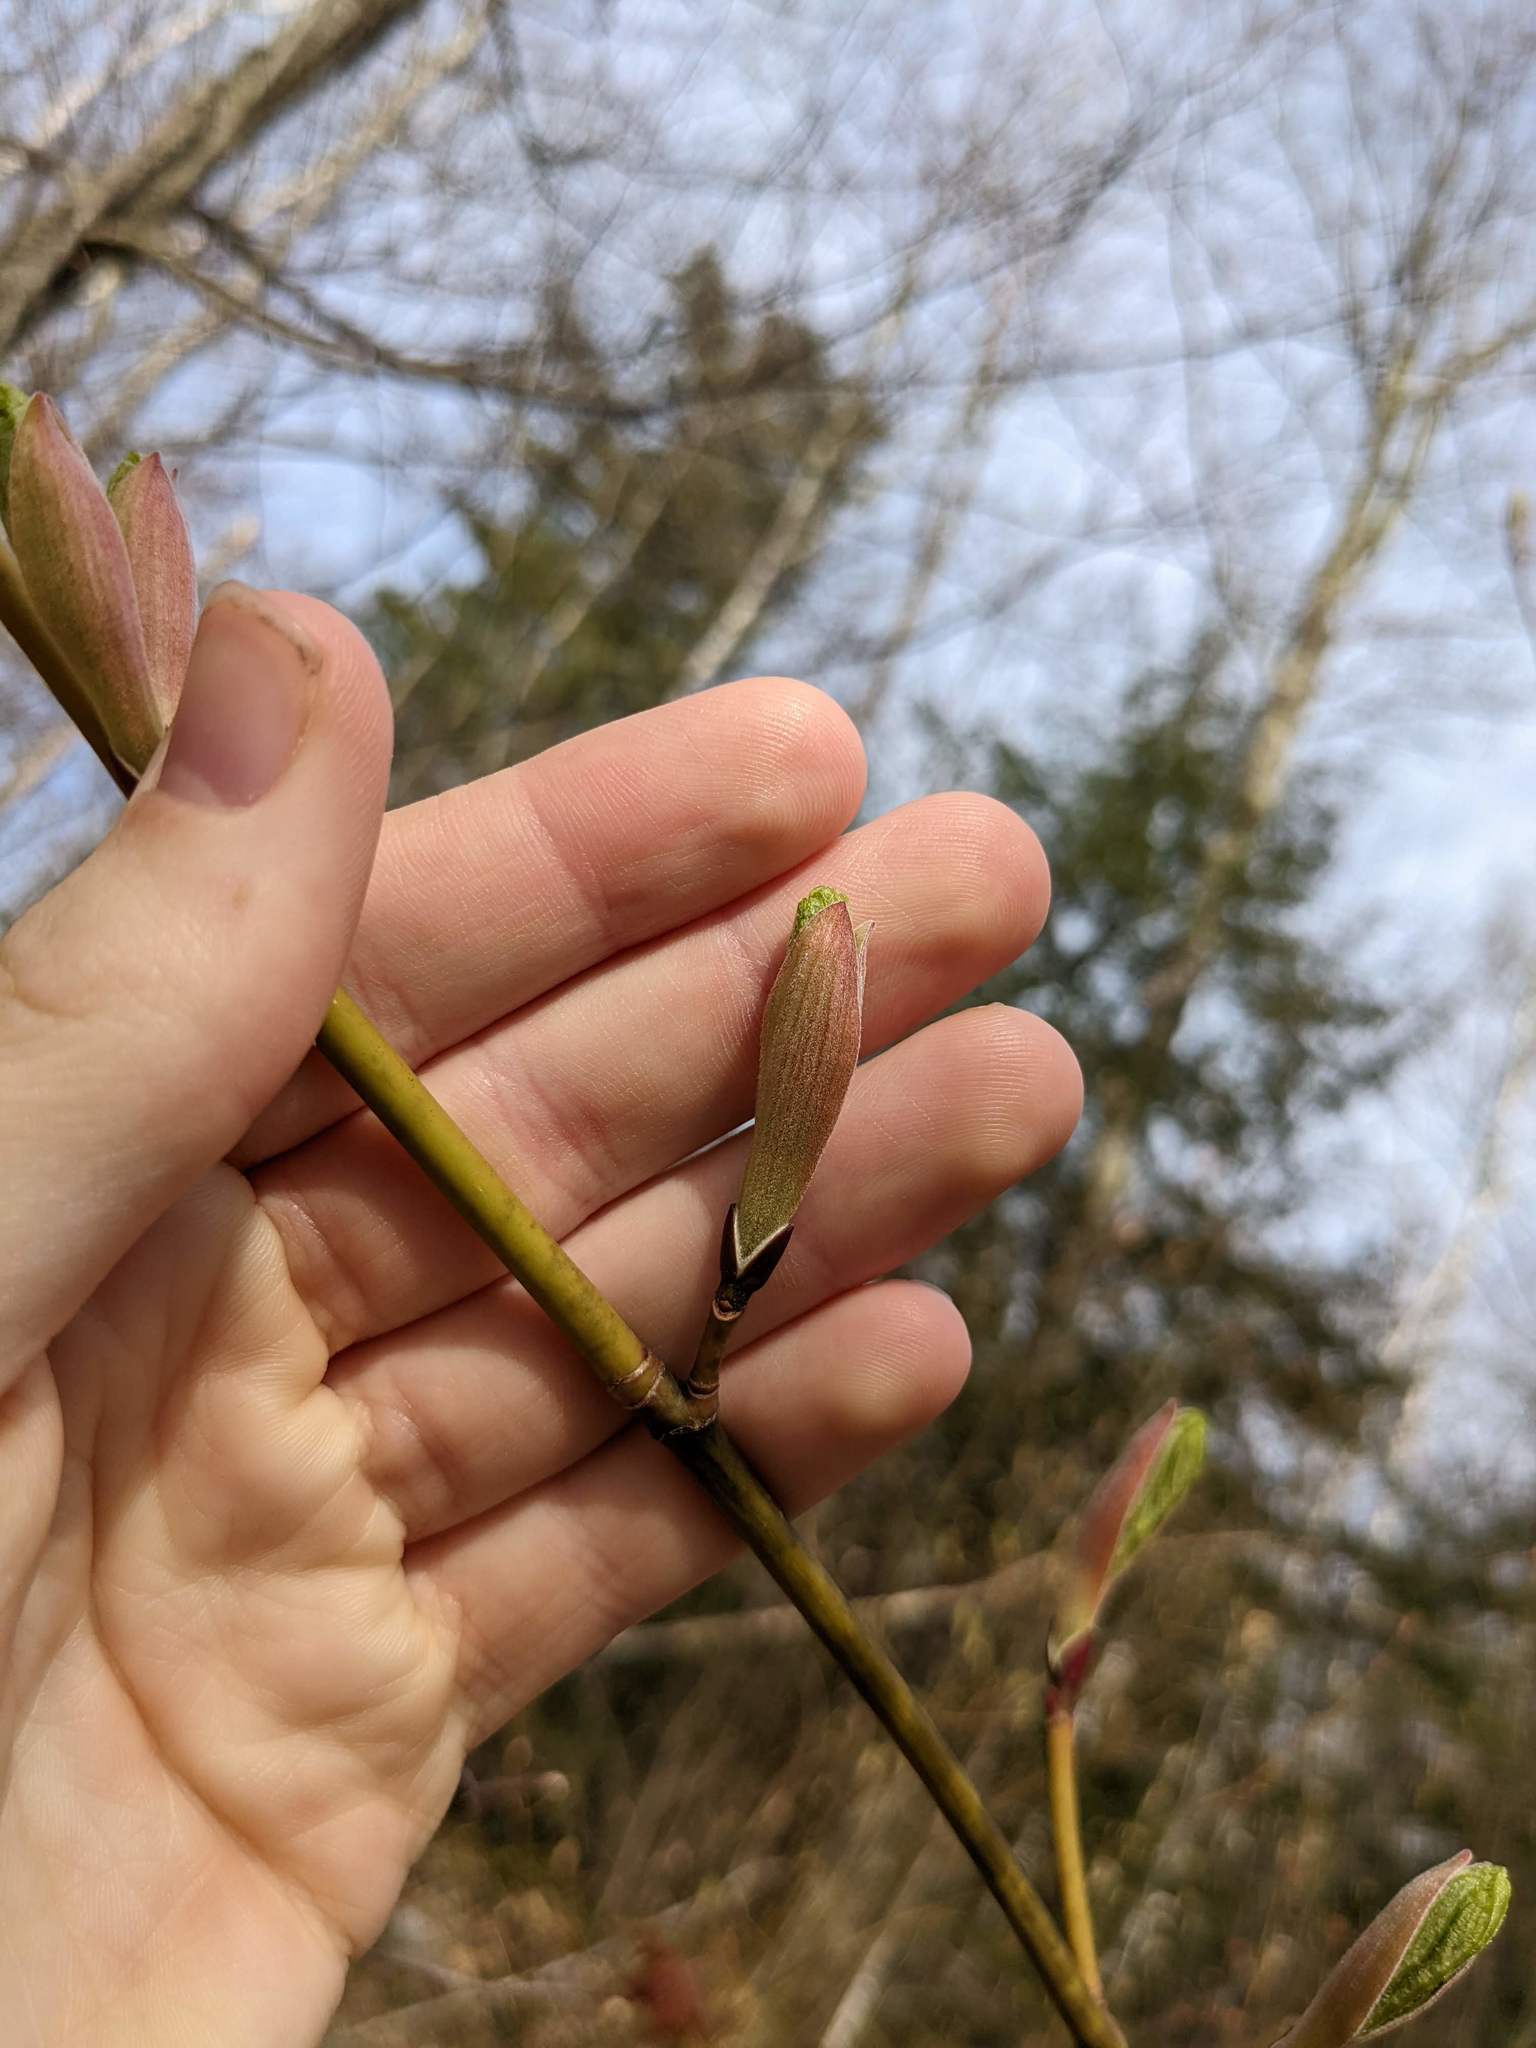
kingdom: Plantae
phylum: Tracheophyta
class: Magnoliopsida
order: Sapindales
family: Sapindaceae
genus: Acer
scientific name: Acer pensylvanicum
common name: Moosewood
